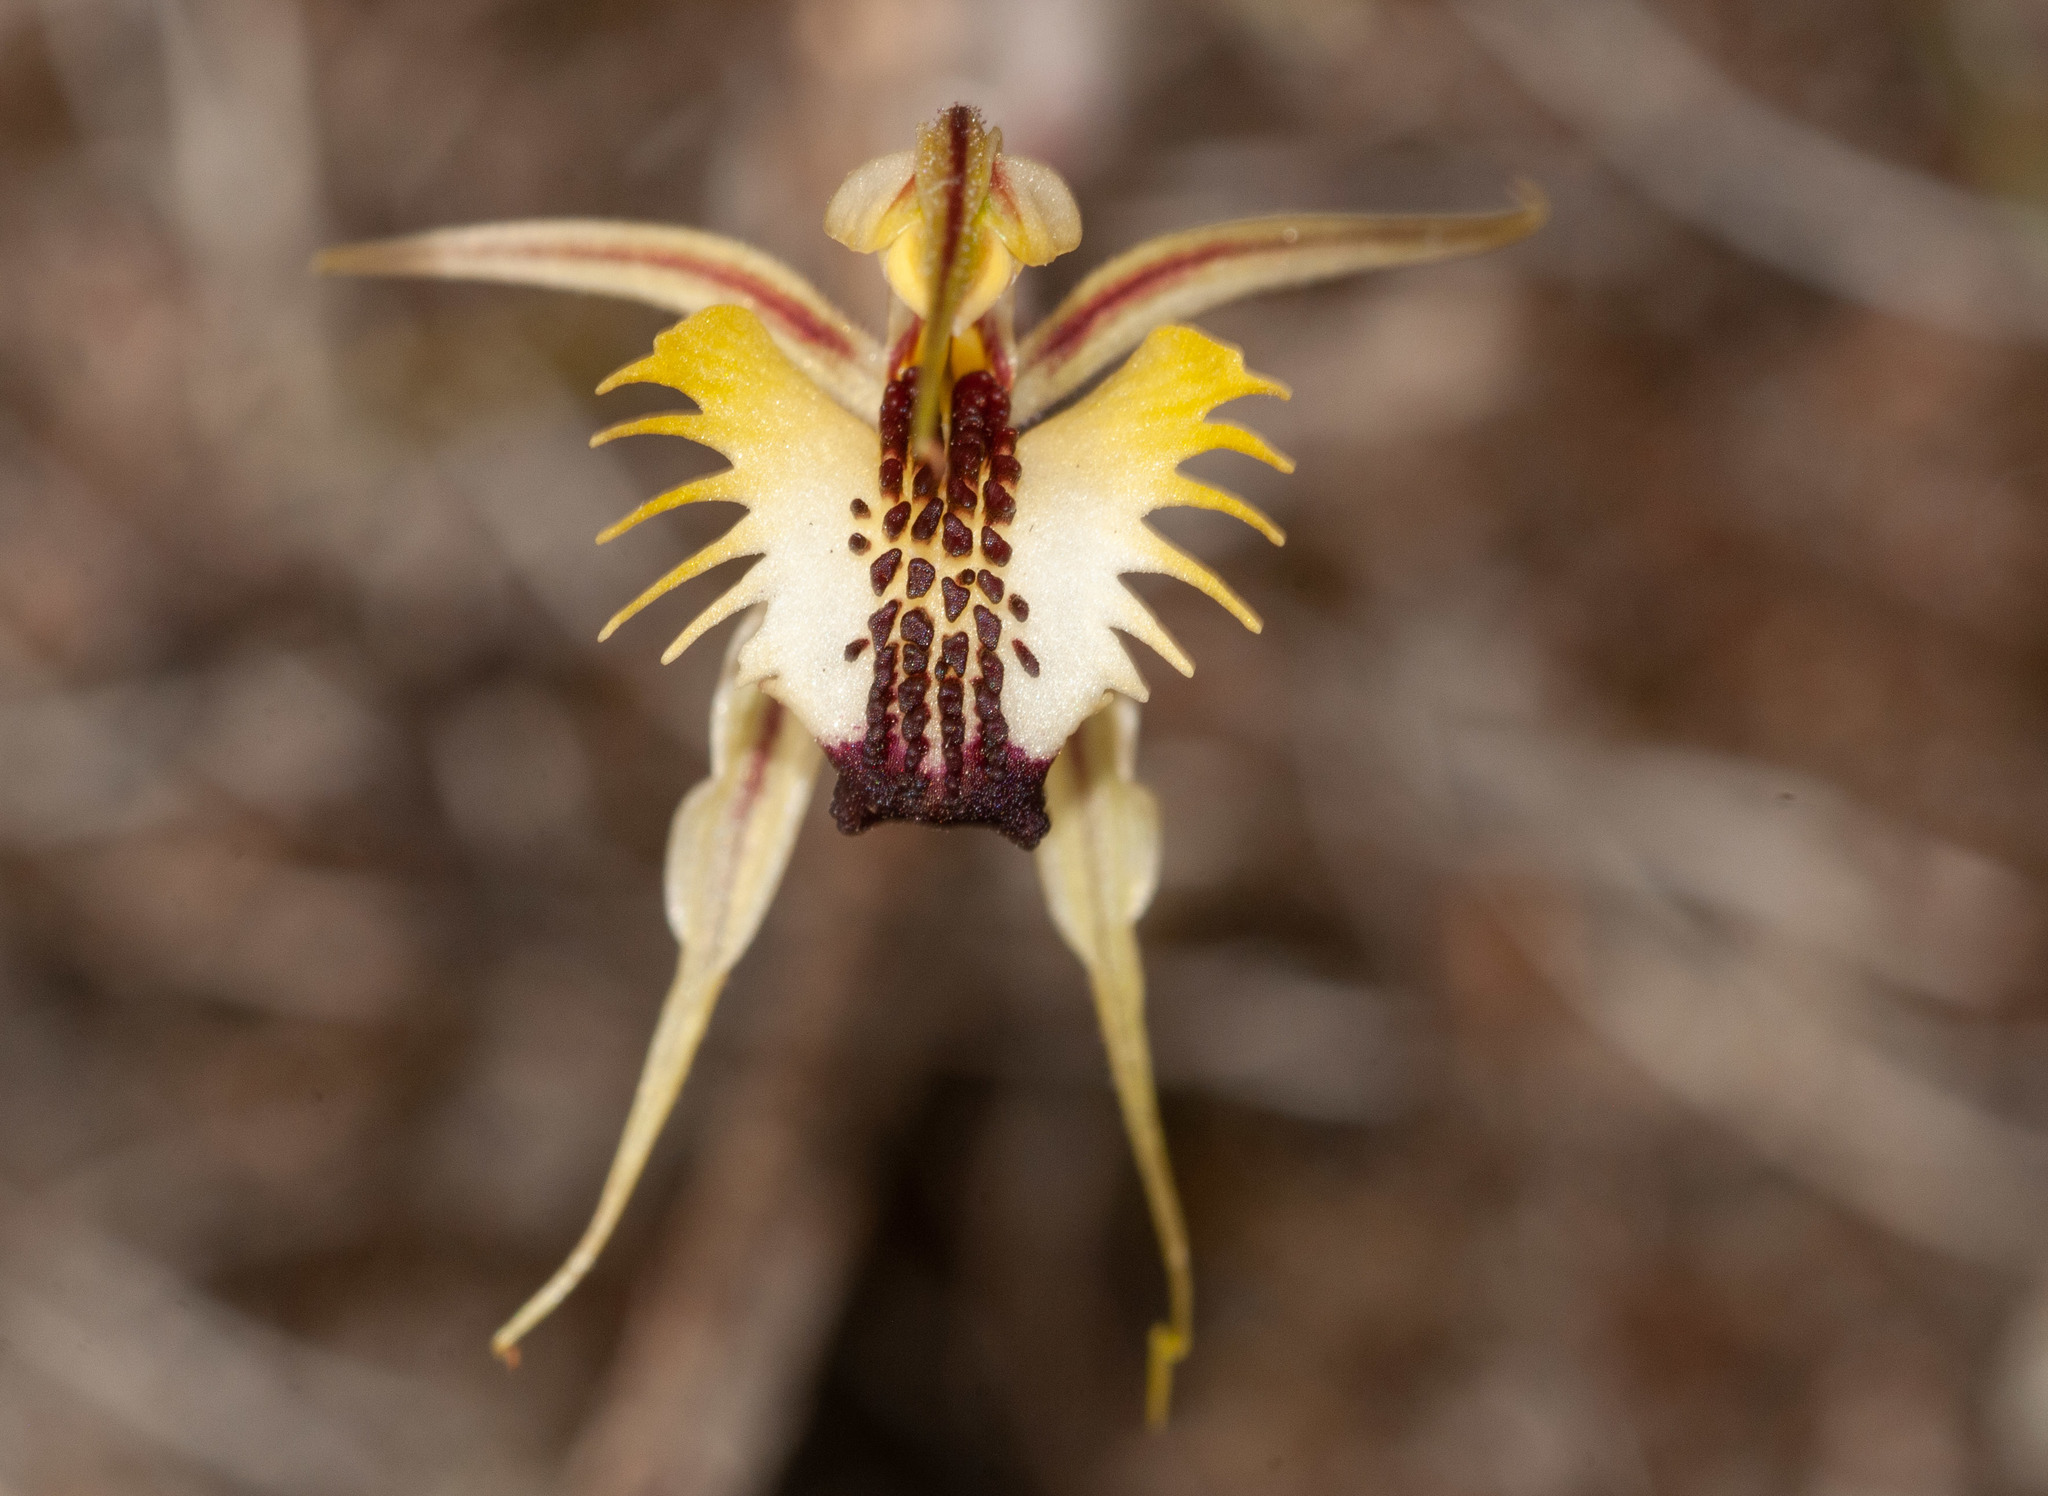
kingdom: Plantae
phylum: Tracheophyta
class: Liliopsida
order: Asparagales
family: Orchidaceae
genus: Caladenia
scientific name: Caladenia stricta
